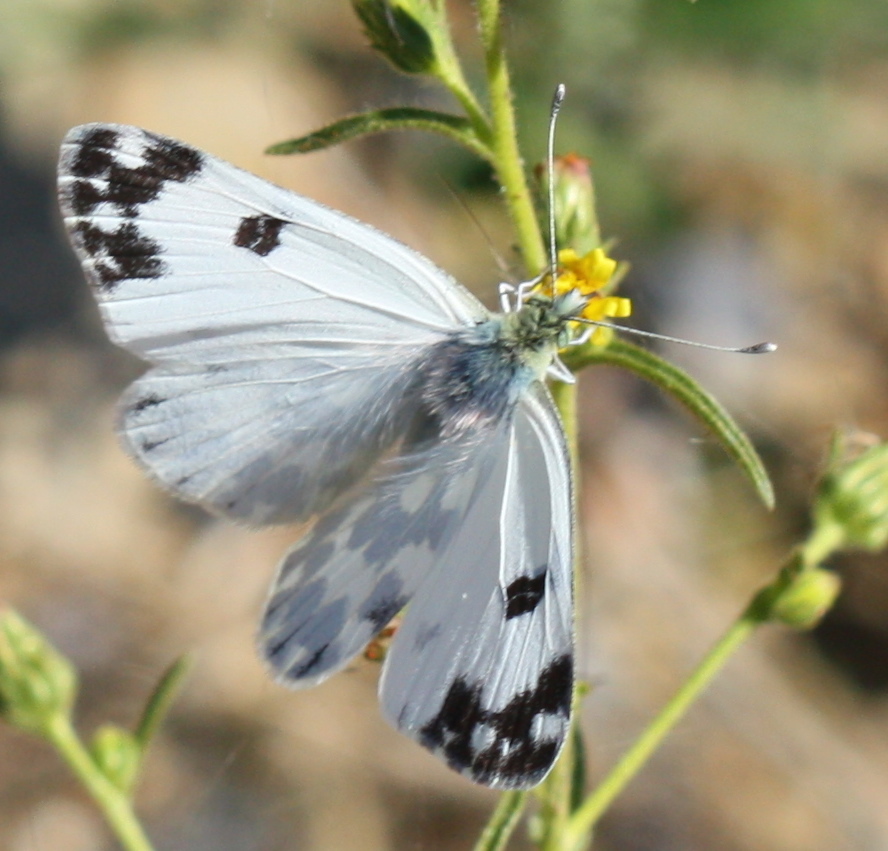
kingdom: Animalia
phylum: Arthropoda
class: Insecta
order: Lepidoptera
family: Pieridae
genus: Pontia
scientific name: Pontia daplidice
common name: Bath white
